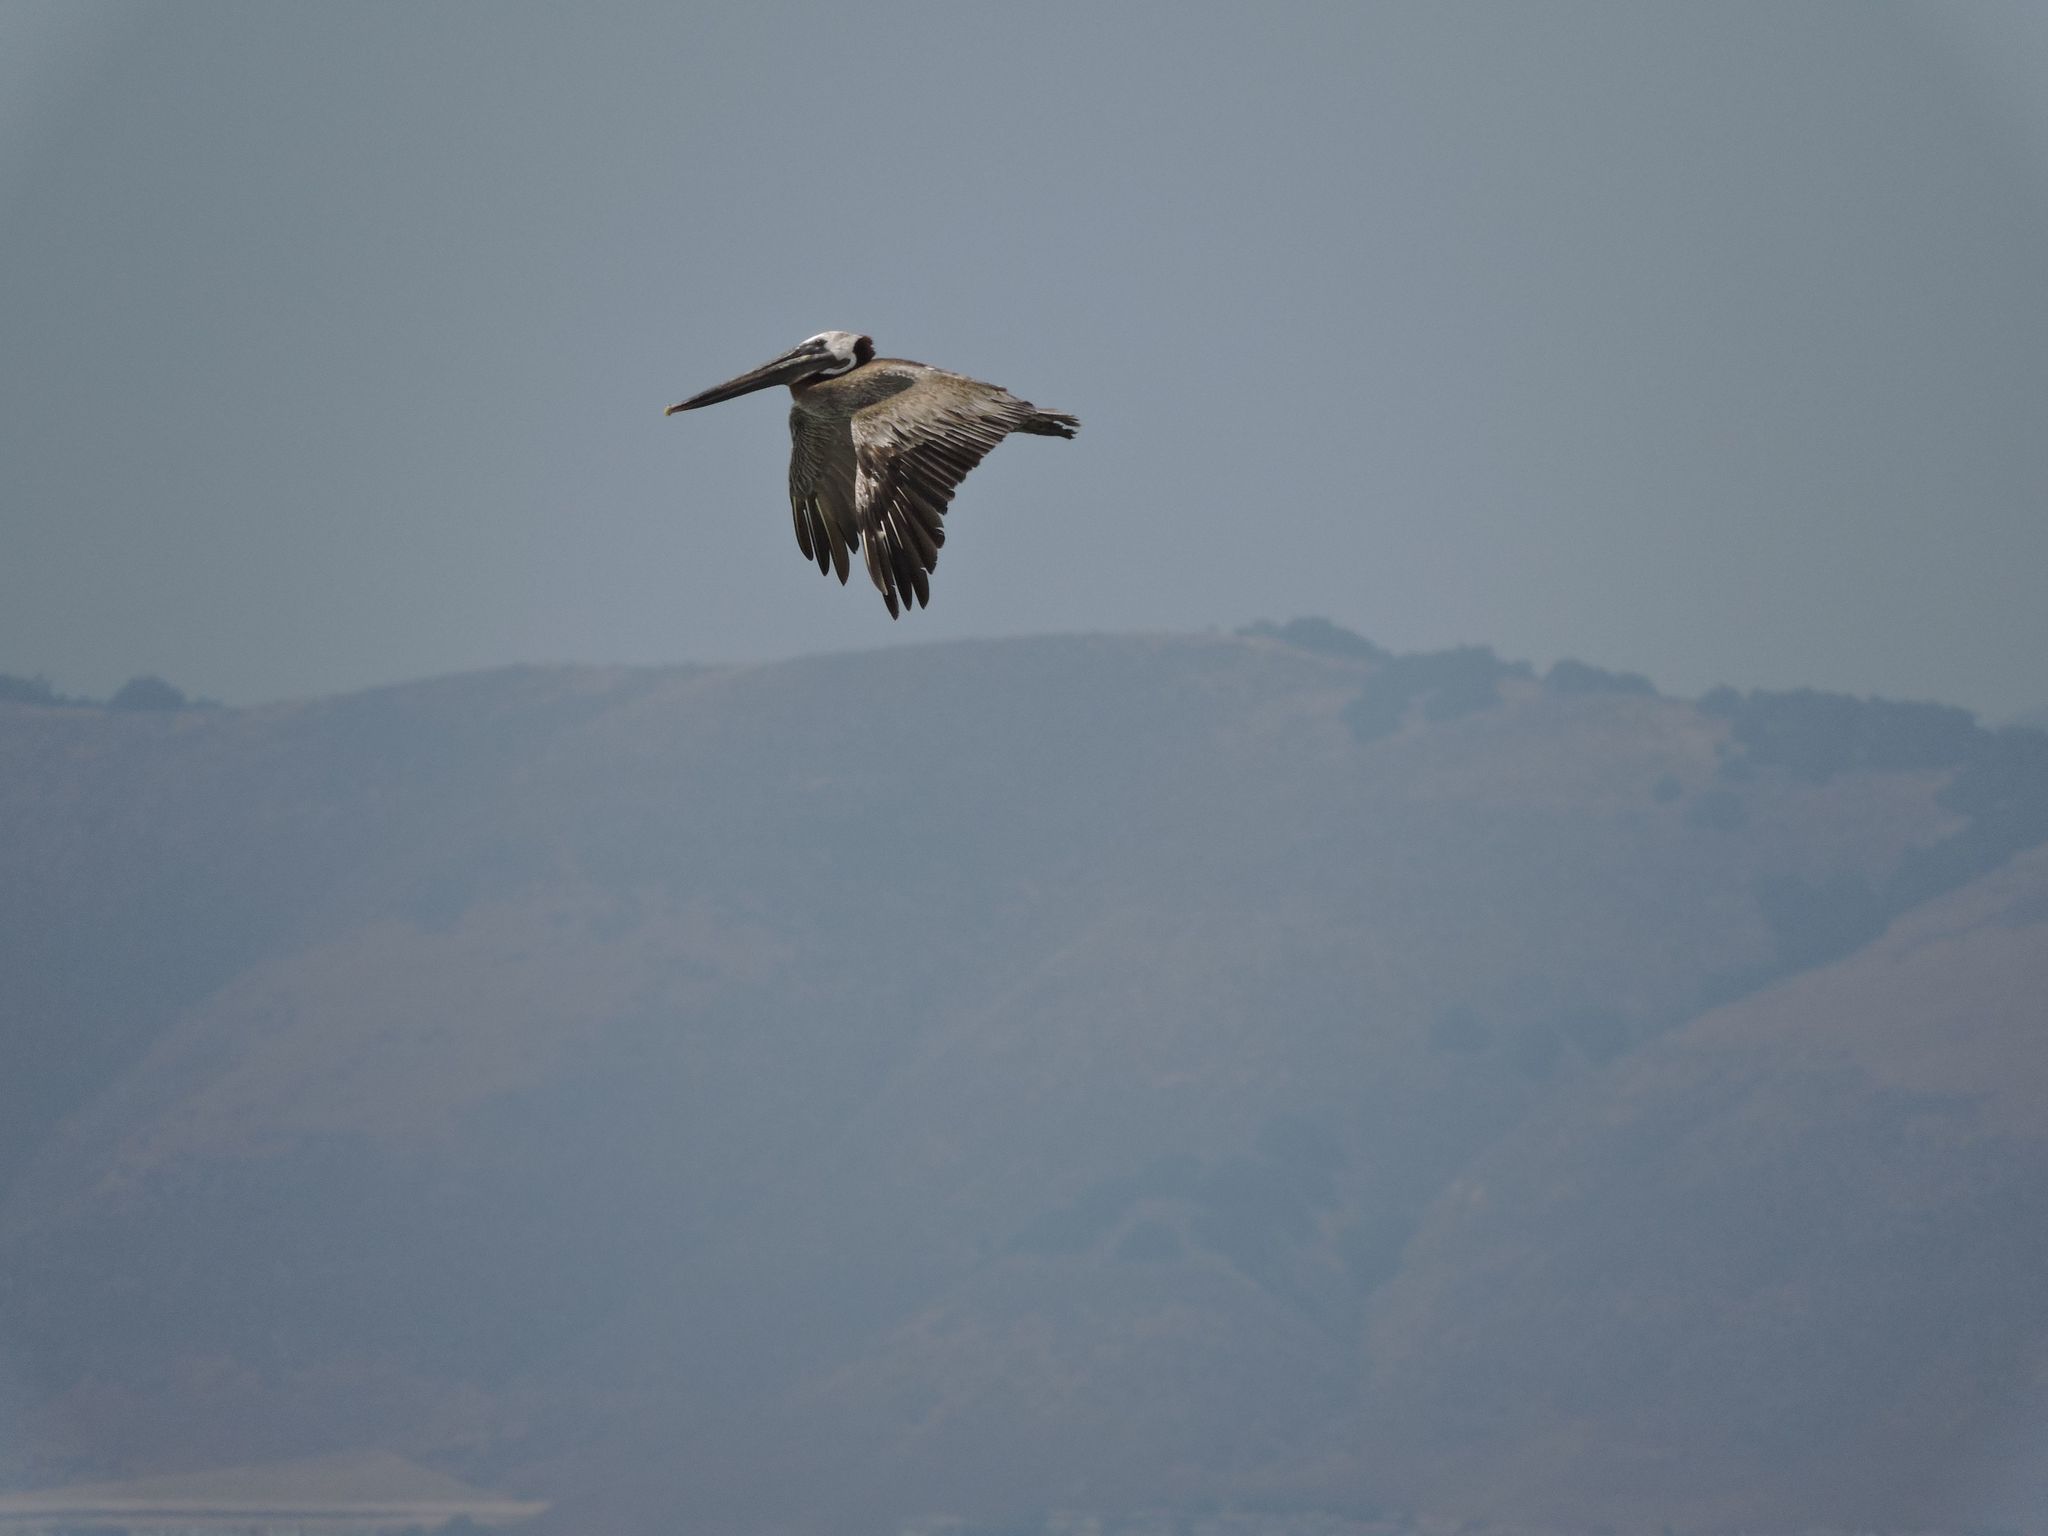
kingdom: Animalia
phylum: Chordata
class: Aves
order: Pelecaniformes
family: Pelecanidae
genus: Pelecanus
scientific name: Pelecanus occidentalis
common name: Brown pelican
